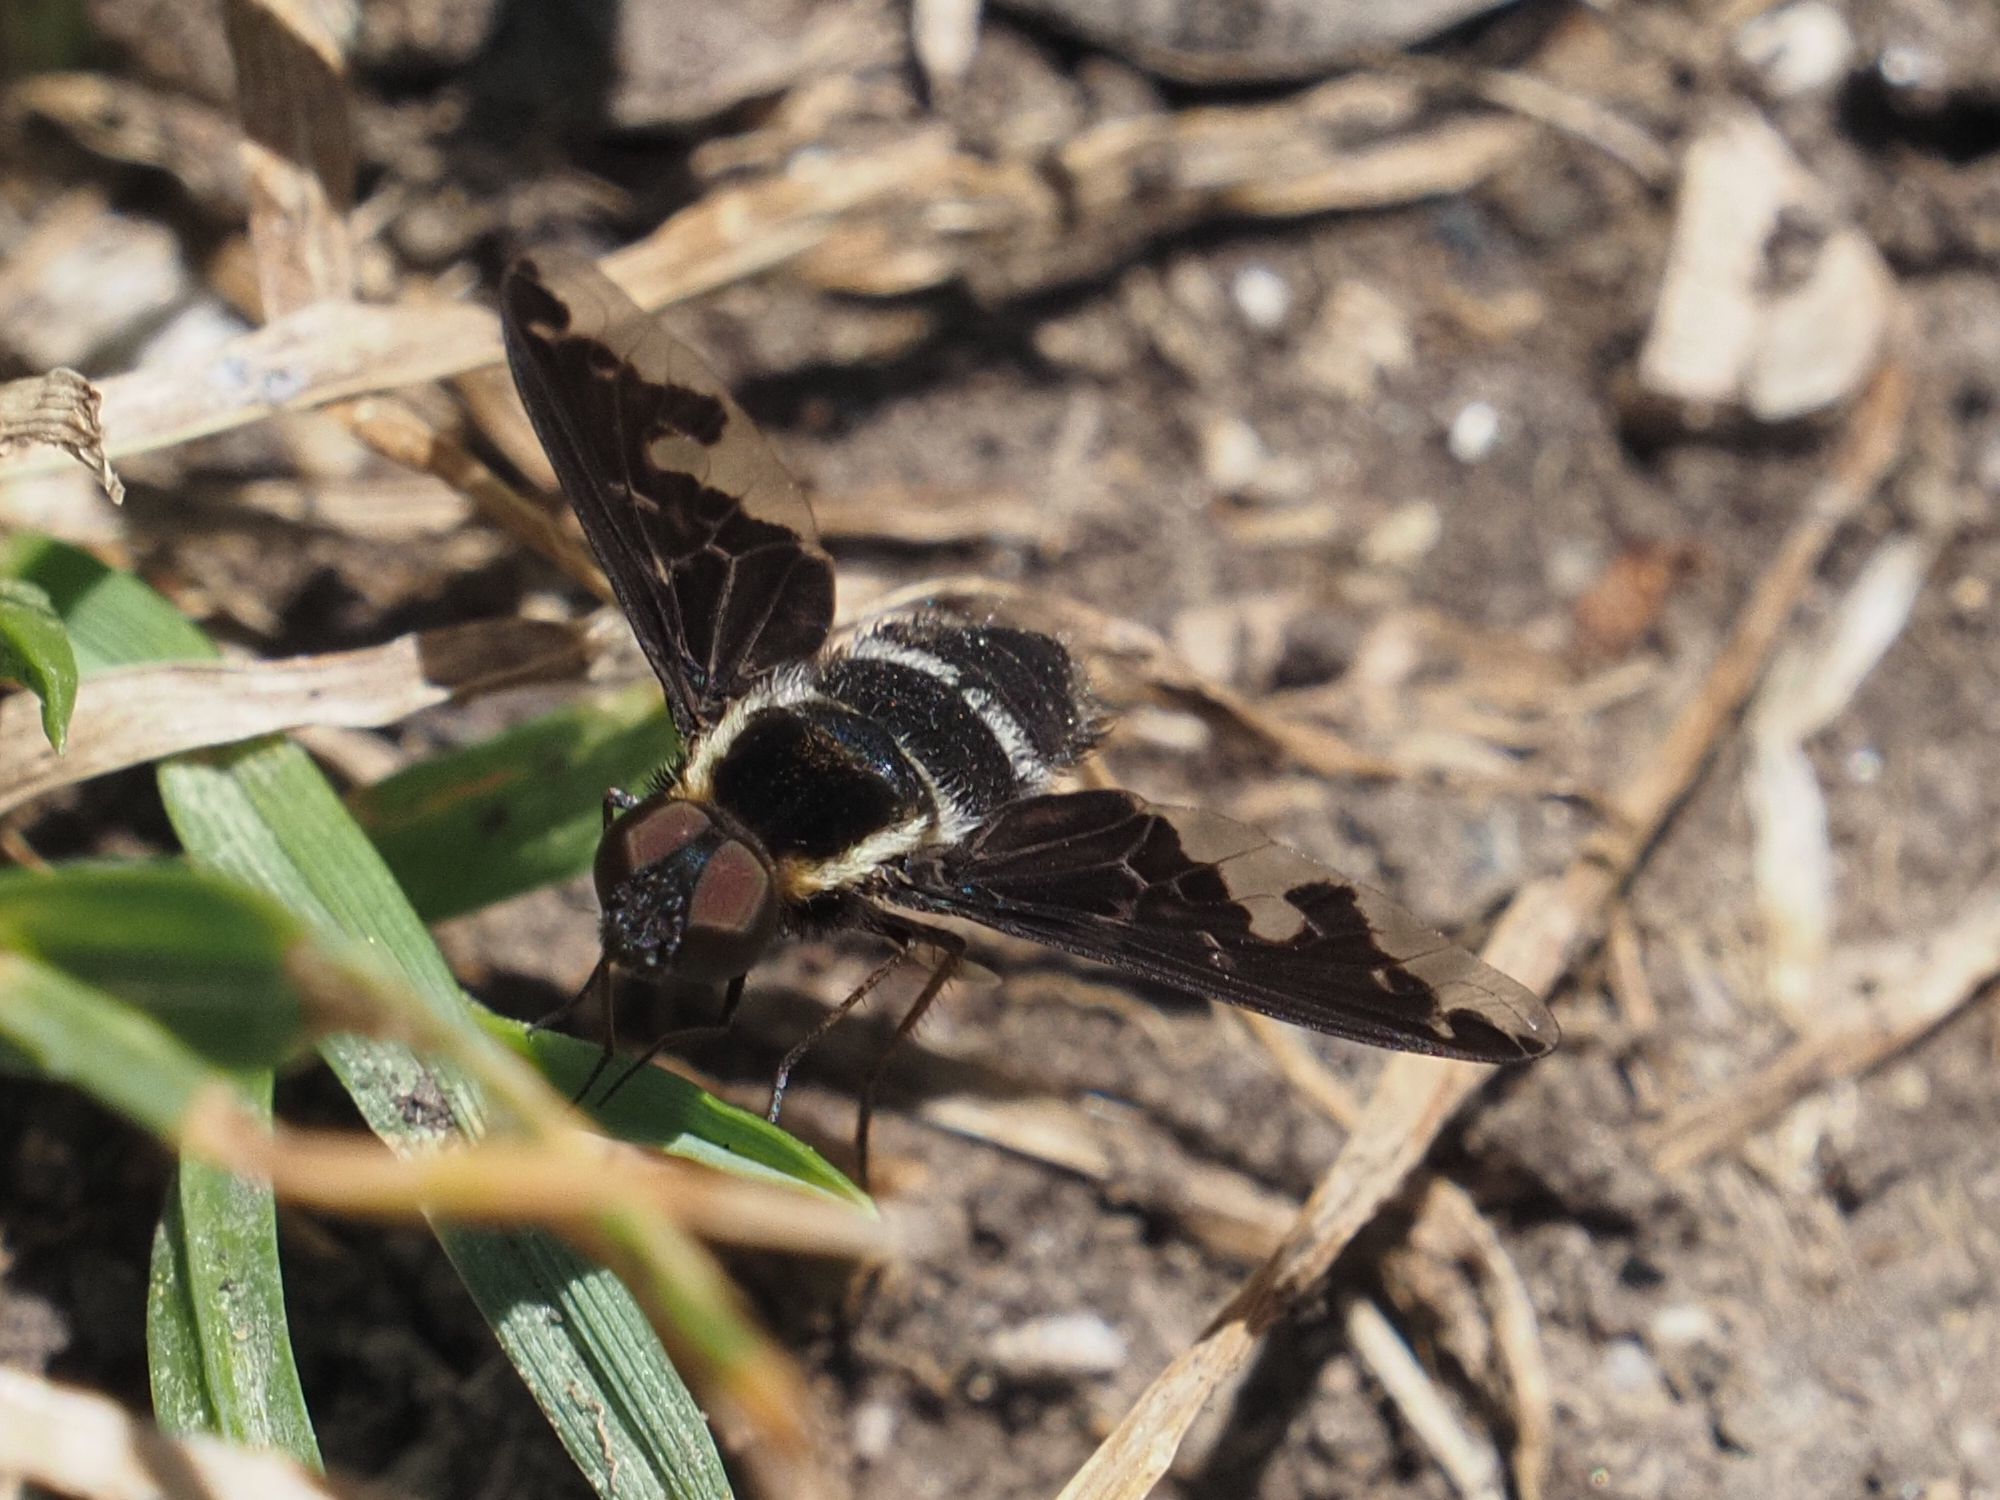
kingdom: Animalia
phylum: Arthropoda
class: Insecta
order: Diptera
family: Bombyliidae
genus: Hemipenthes
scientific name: Hemipenthes maura
